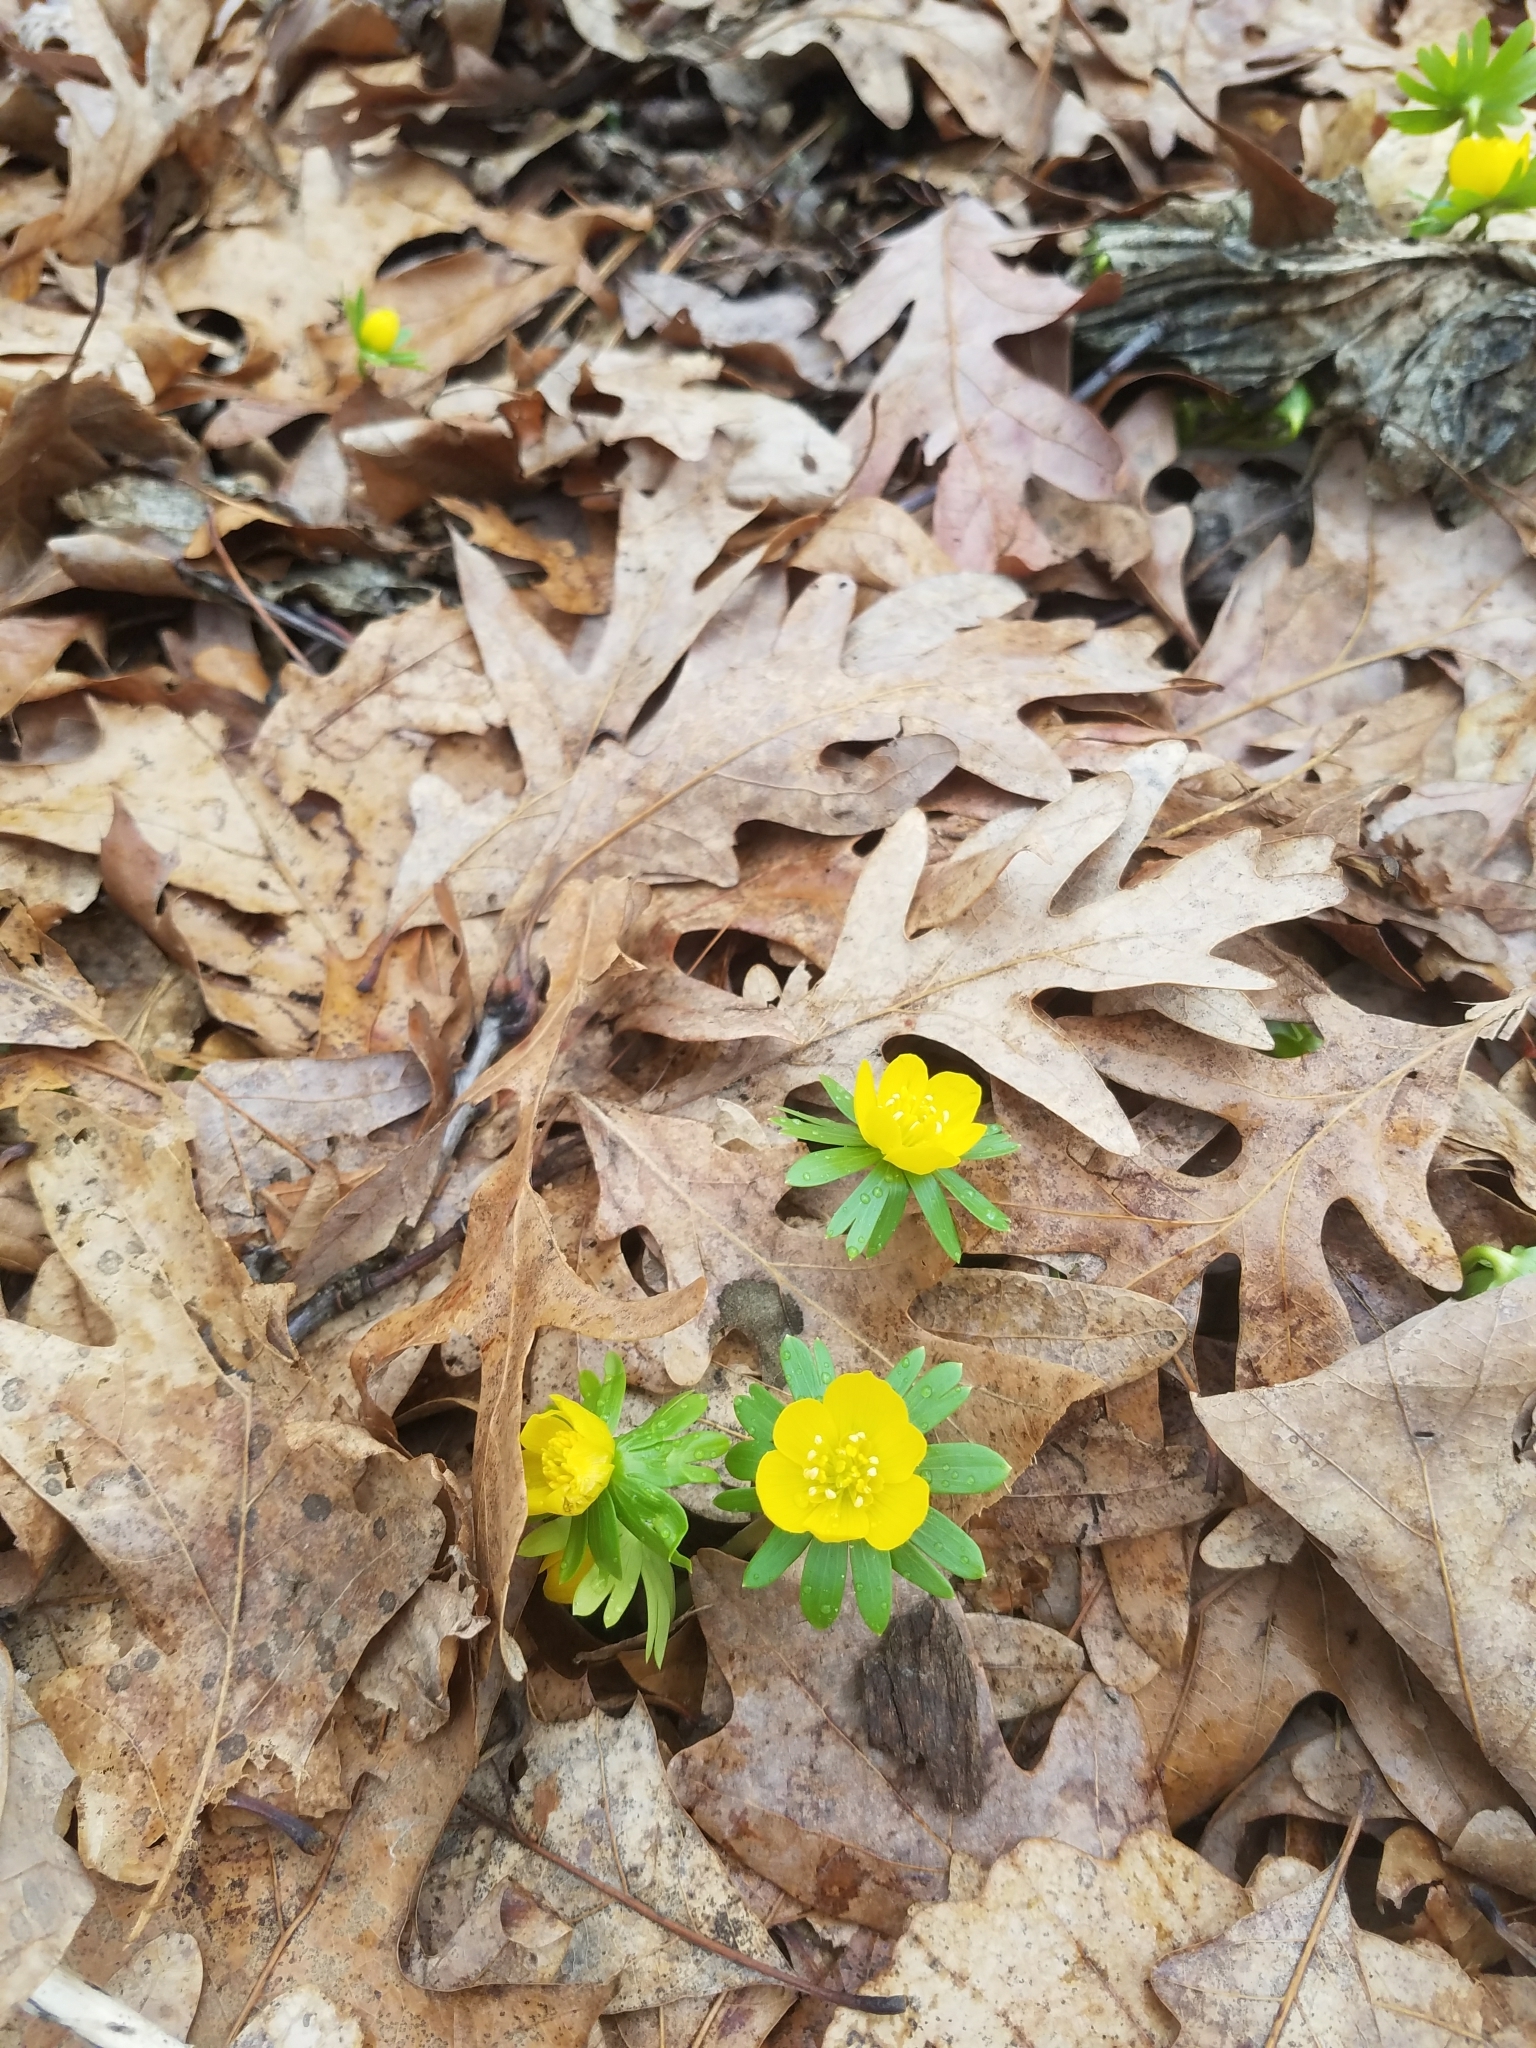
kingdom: Plantae
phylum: Tracheophyta
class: Magnoliopsida
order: Ranunculales
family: Ranunculaceae
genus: Eranthis
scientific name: Eranthis hyemalis
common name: Winter aconite
